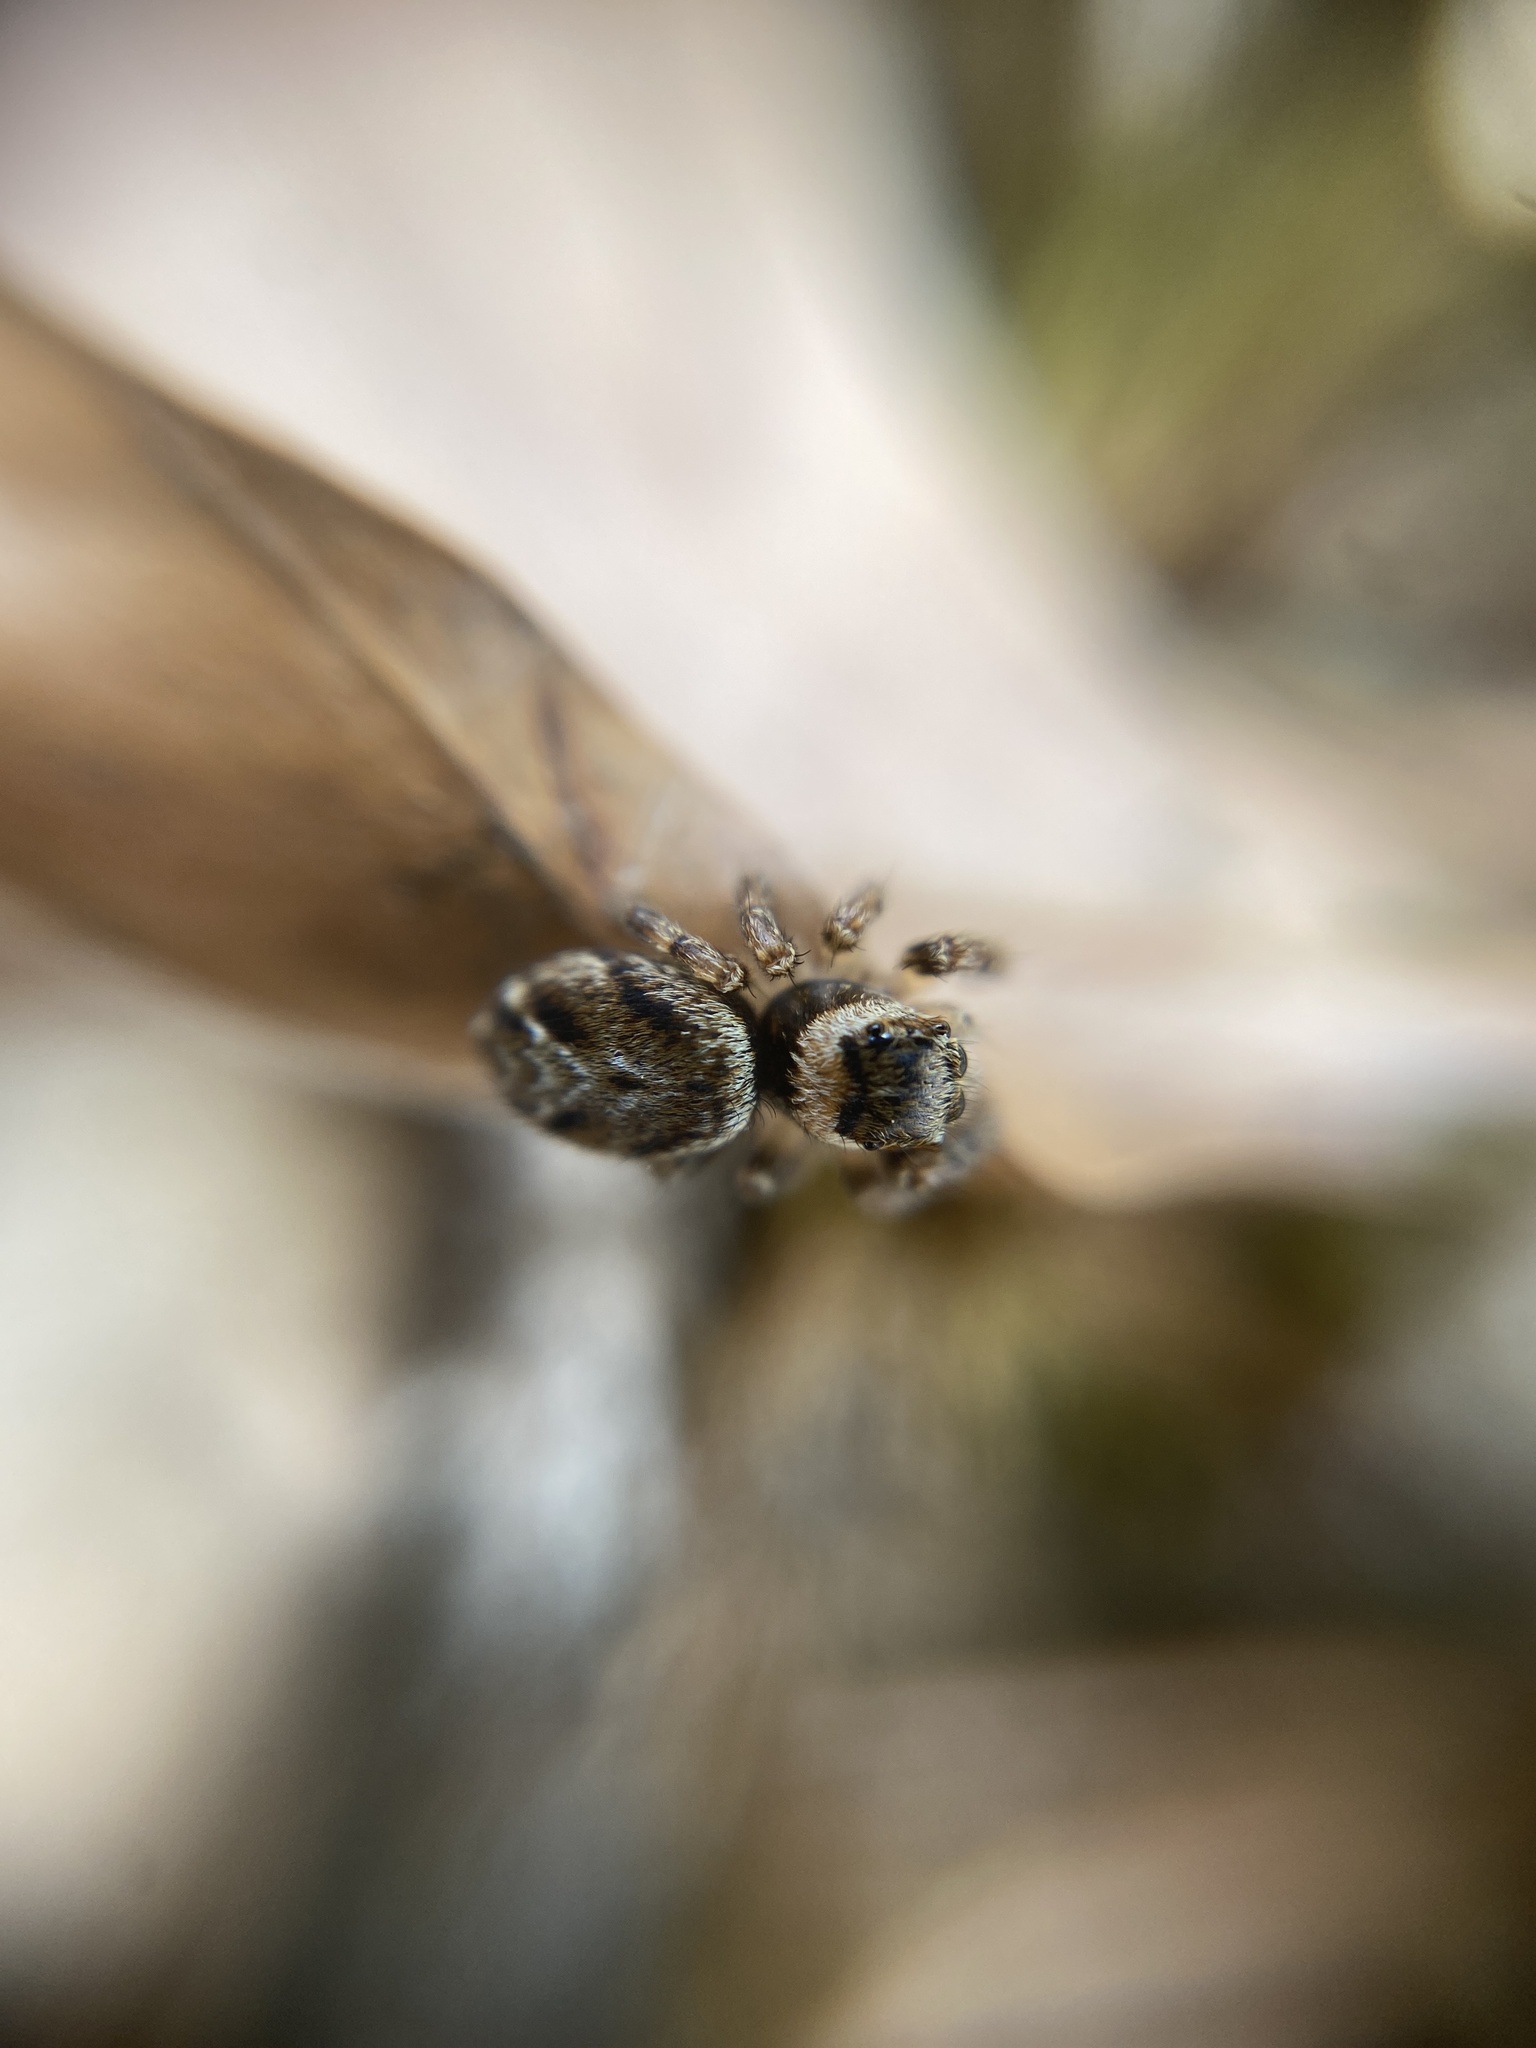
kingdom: Animalia
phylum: Arthropoda
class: Arachnida
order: Araneae
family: Salticidae
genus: Evarcha
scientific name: Evarcha falcata
